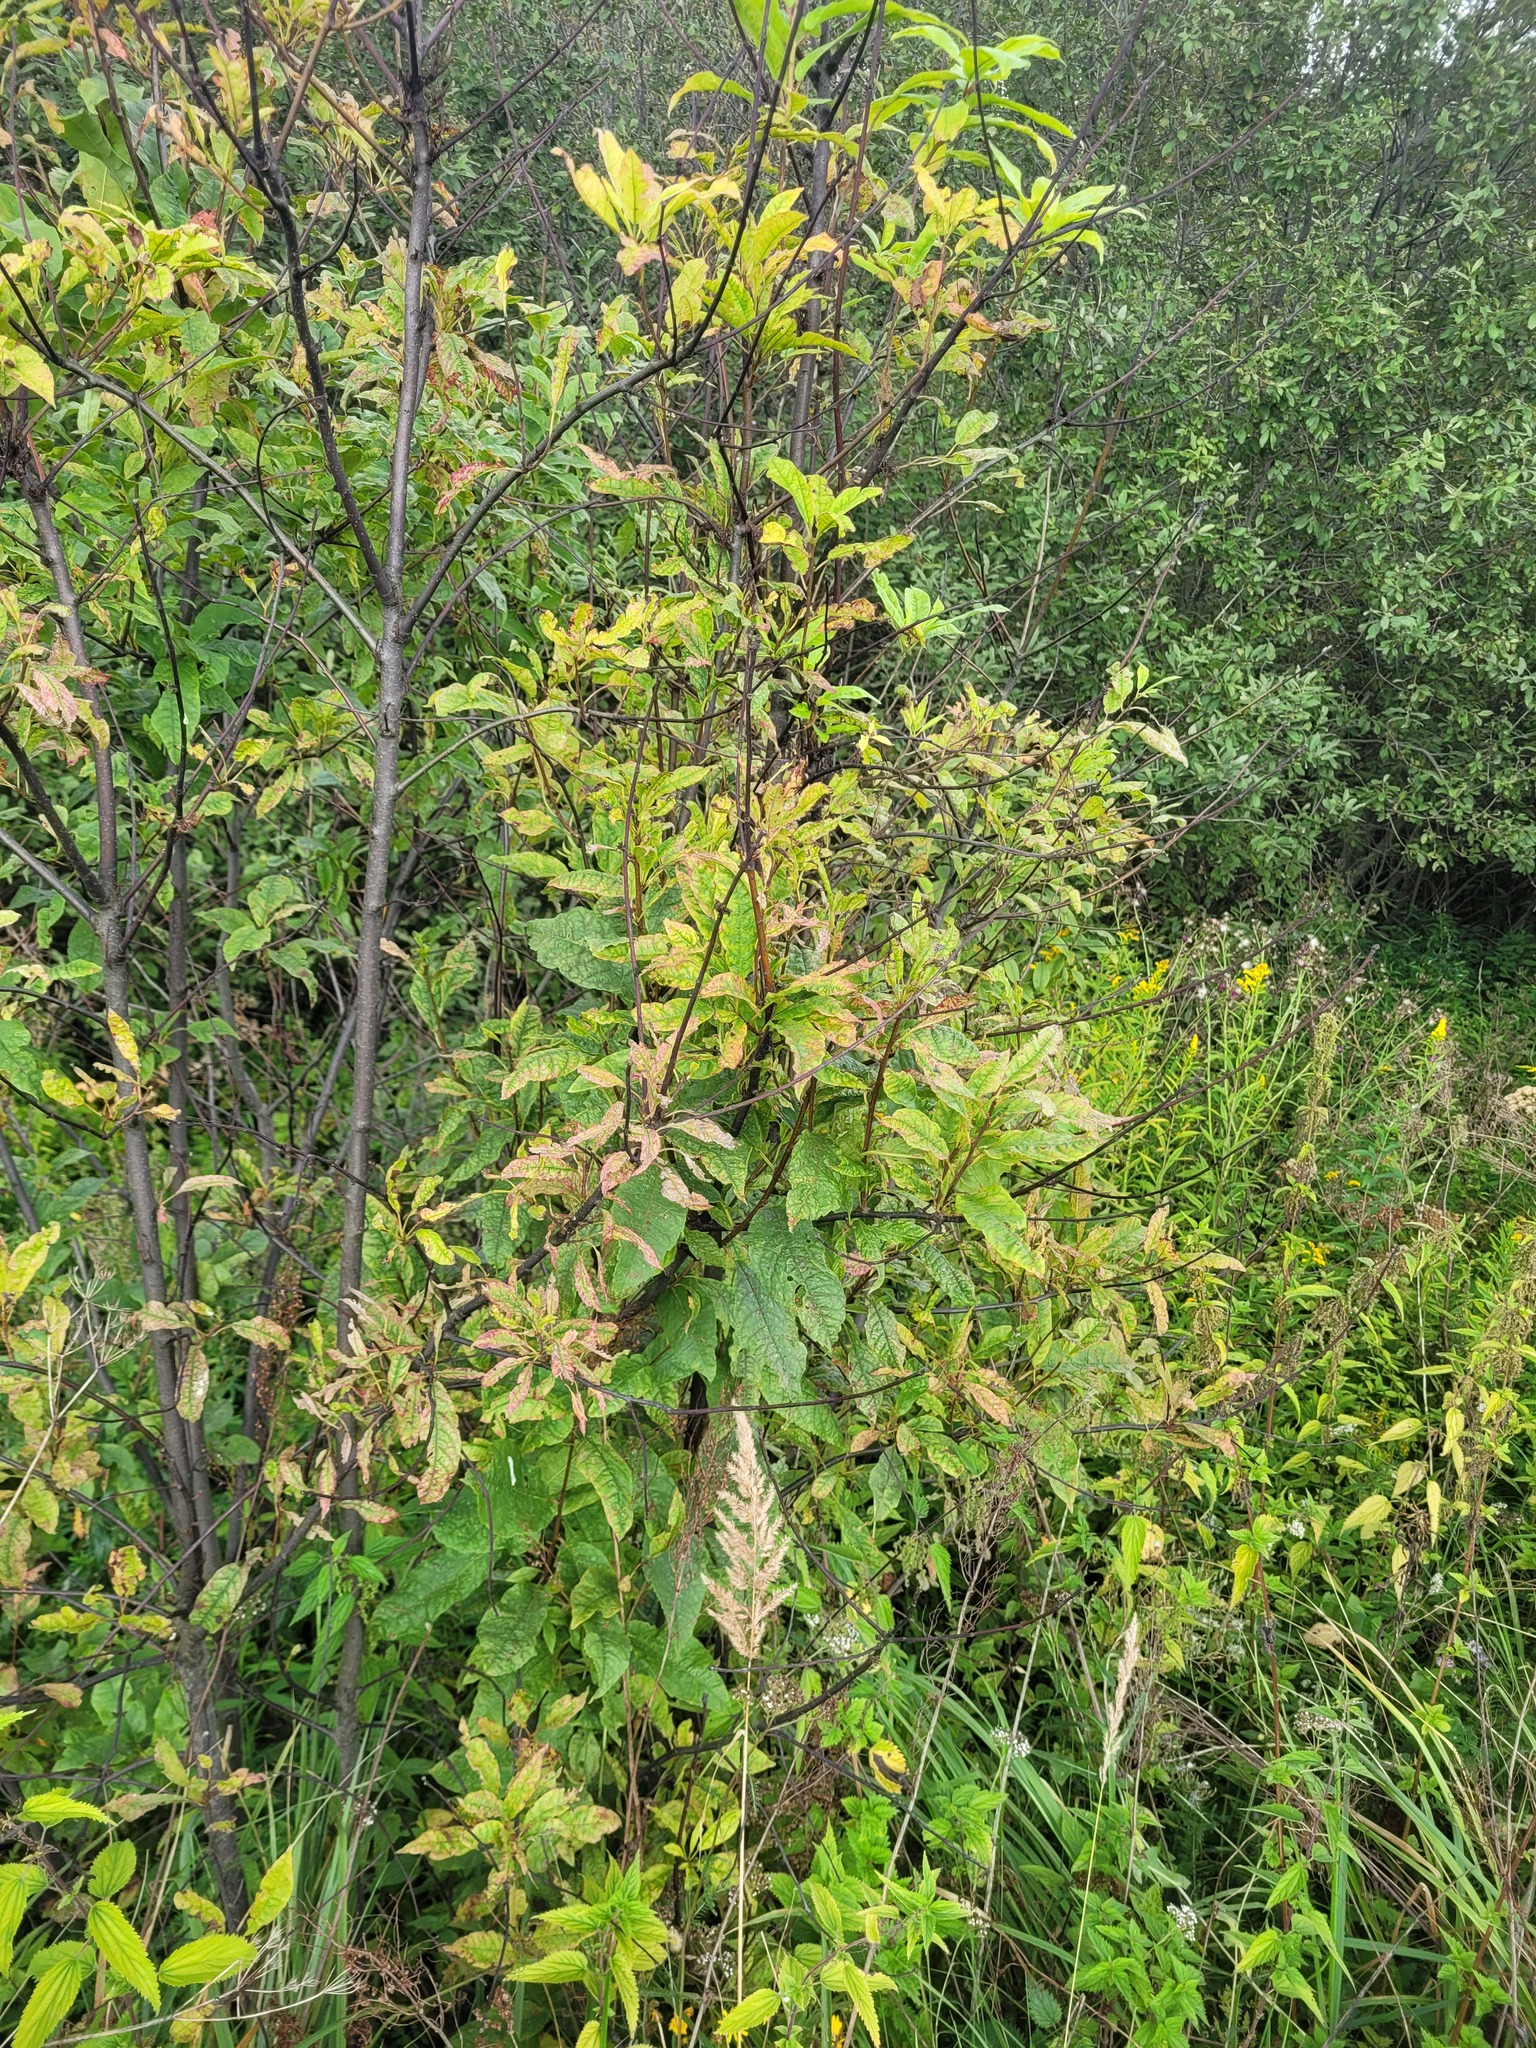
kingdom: Plantae
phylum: Tracheophyta
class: Magnoliopsida
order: Rosales
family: Rosaceae
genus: Prunus
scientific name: Prunus padus
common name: Bird cherry
